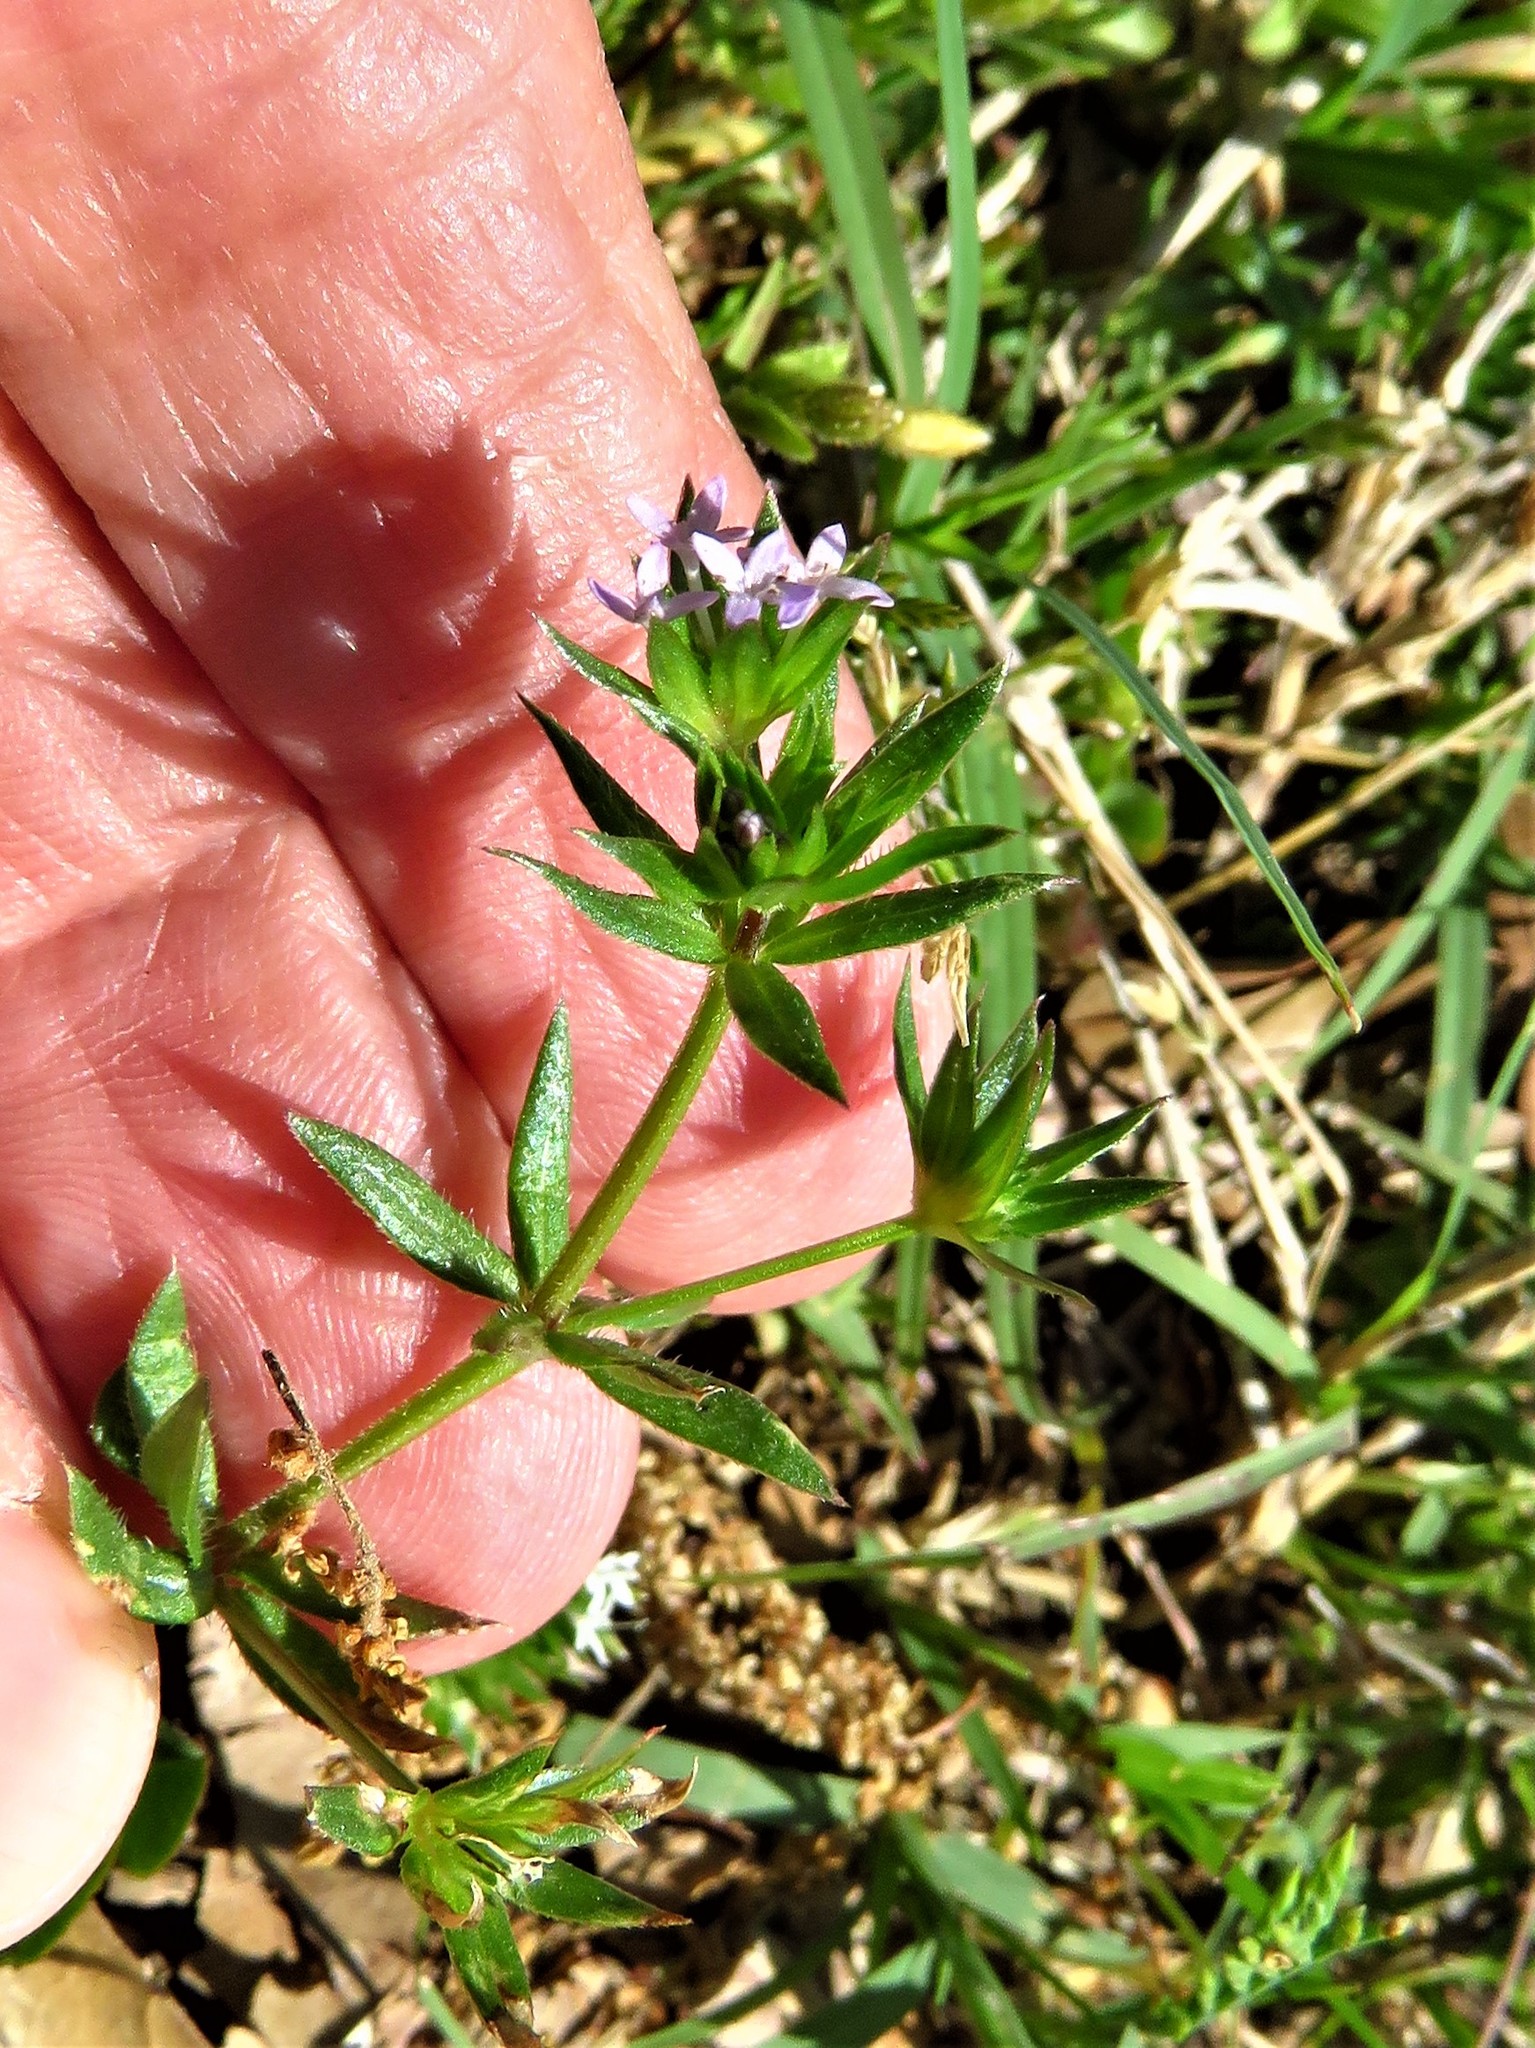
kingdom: Plantae
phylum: Tracheophyta
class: Magnoliopsida
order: Gentianales
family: Rubiaceae
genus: Sherardia
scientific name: Sherardia arvensis
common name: Field madder
